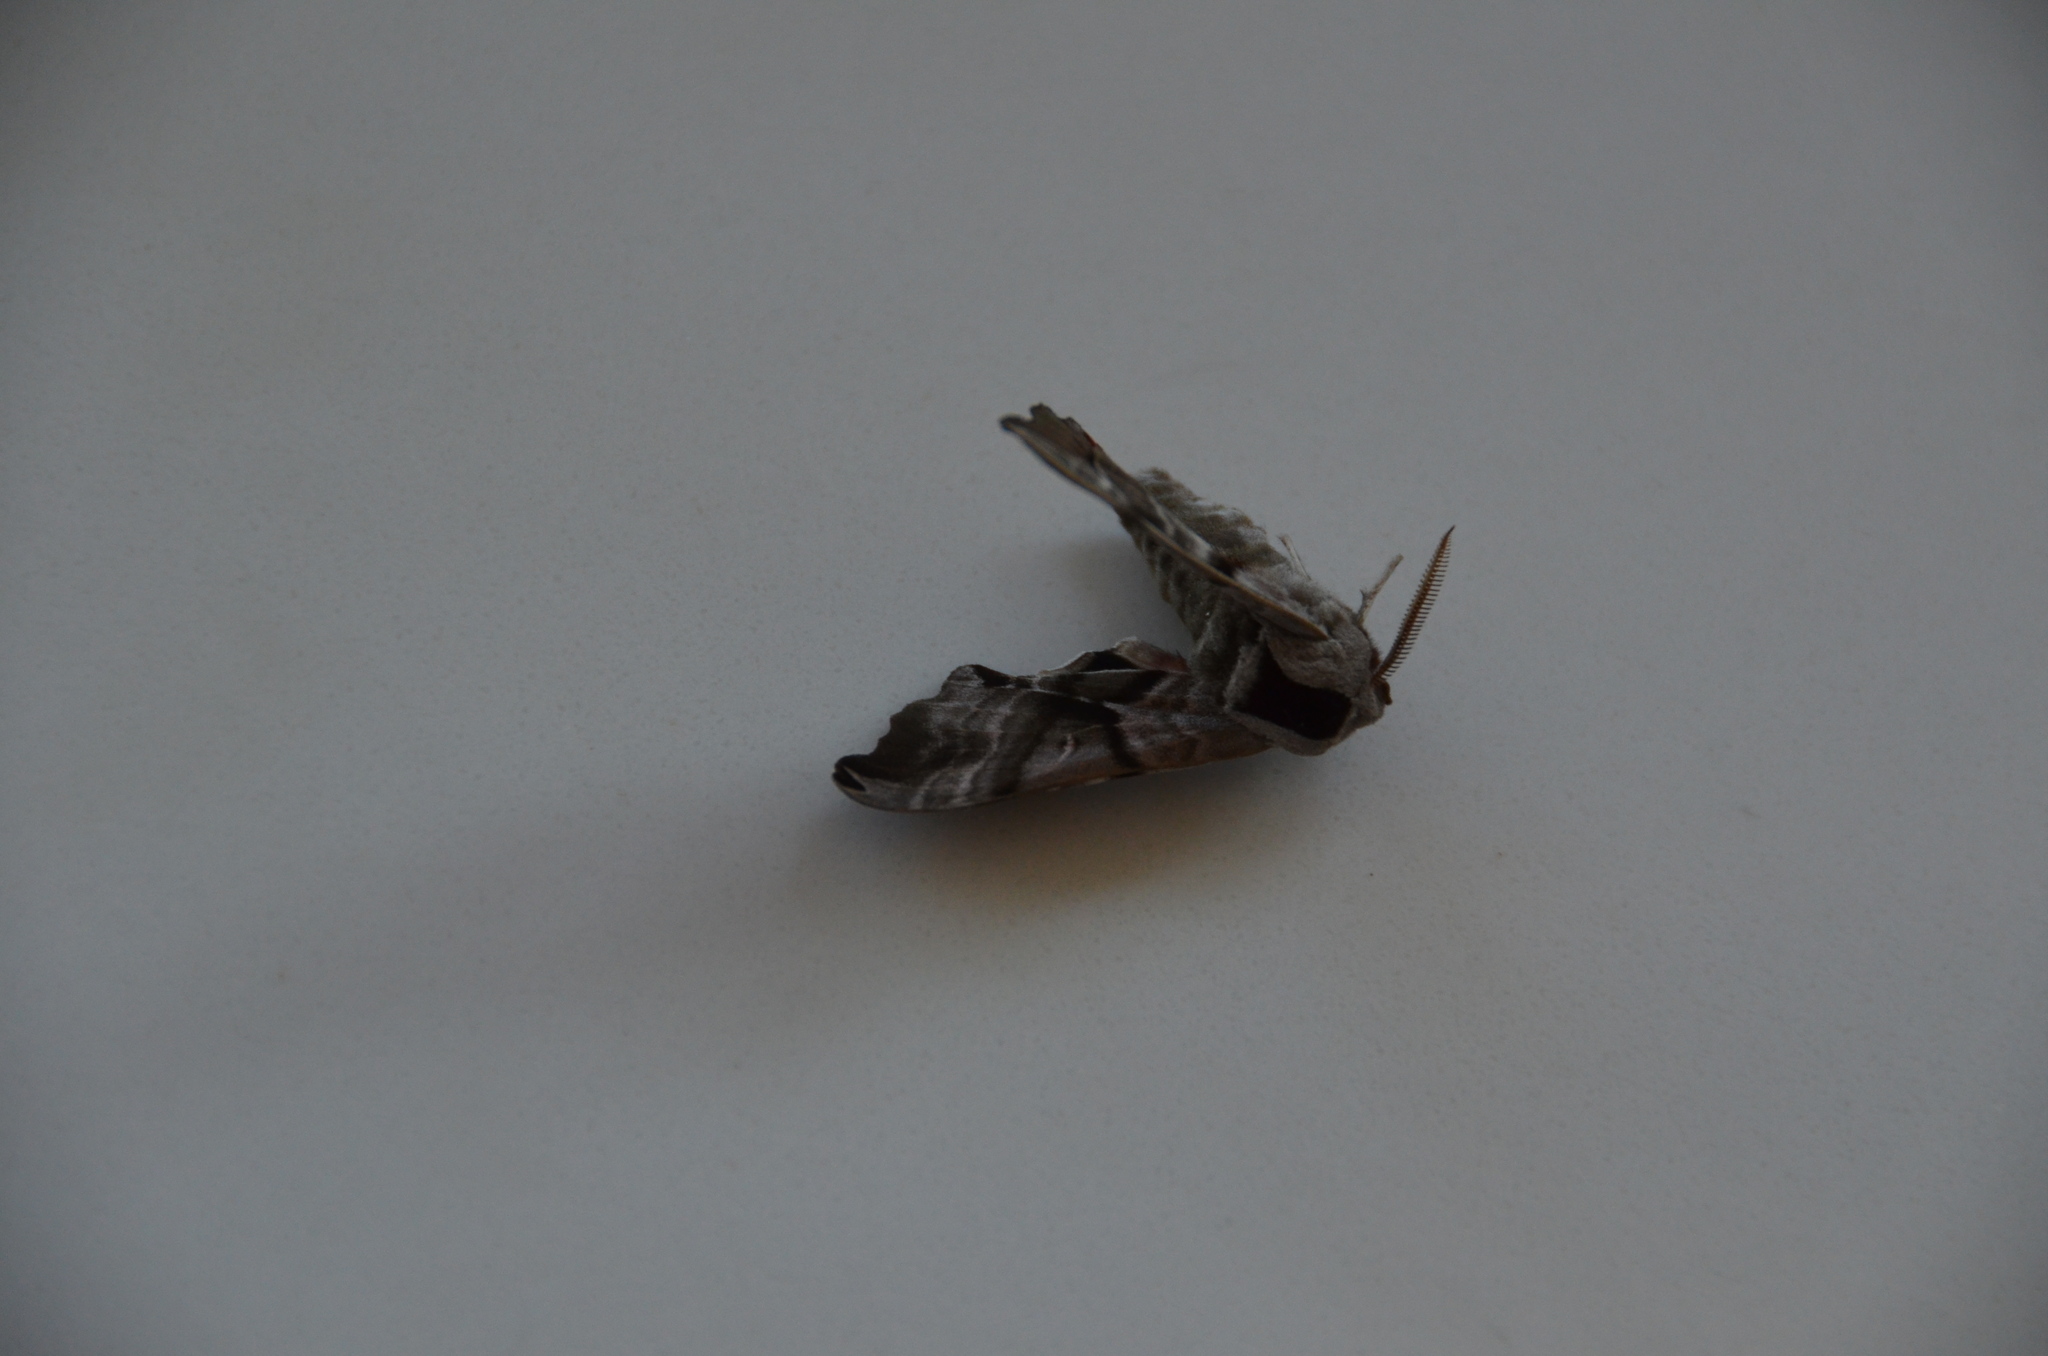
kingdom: Animalia
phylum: Arthropoda
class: Insecta
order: Lepidoptera
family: Sphingidae
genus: Smerinthus
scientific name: Smerinthus jamaicensis
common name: Twin spotted sphinx
